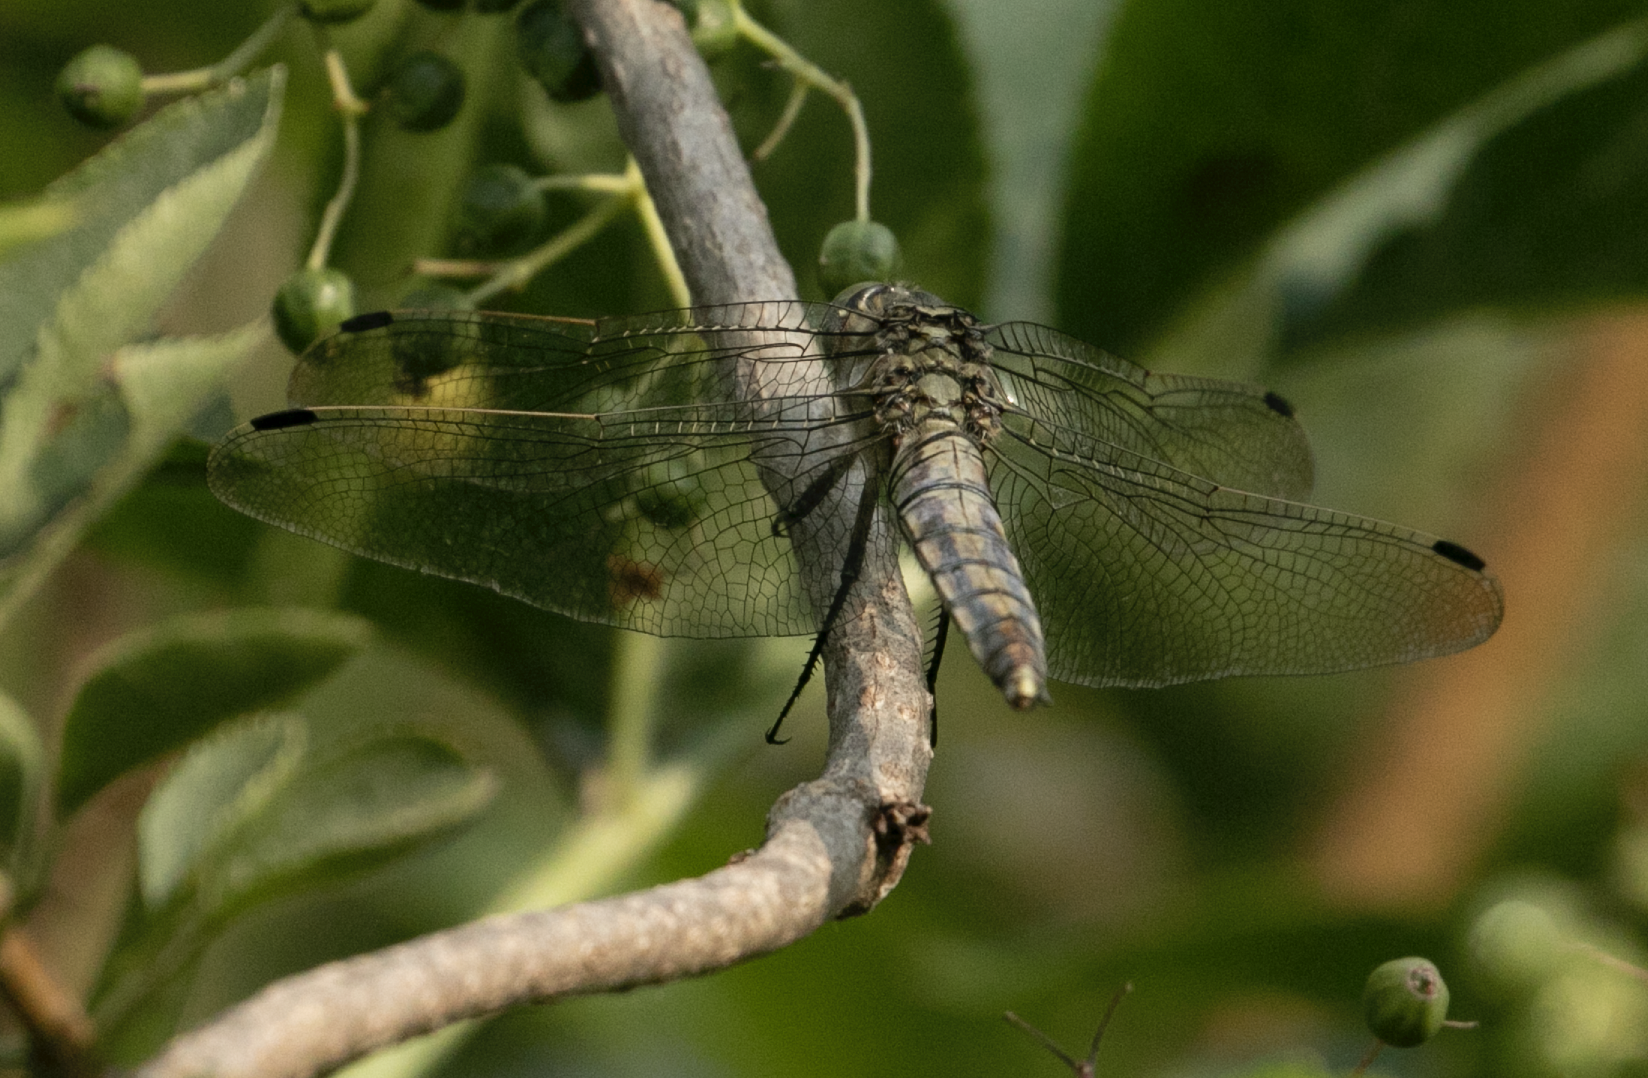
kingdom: Animalia
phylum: Arthropoda
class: Insecta
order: Odonata
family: Libellulidae
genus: Orthetrum
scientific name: Orthetrum cancellatum
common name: Black-tailed skimmer
